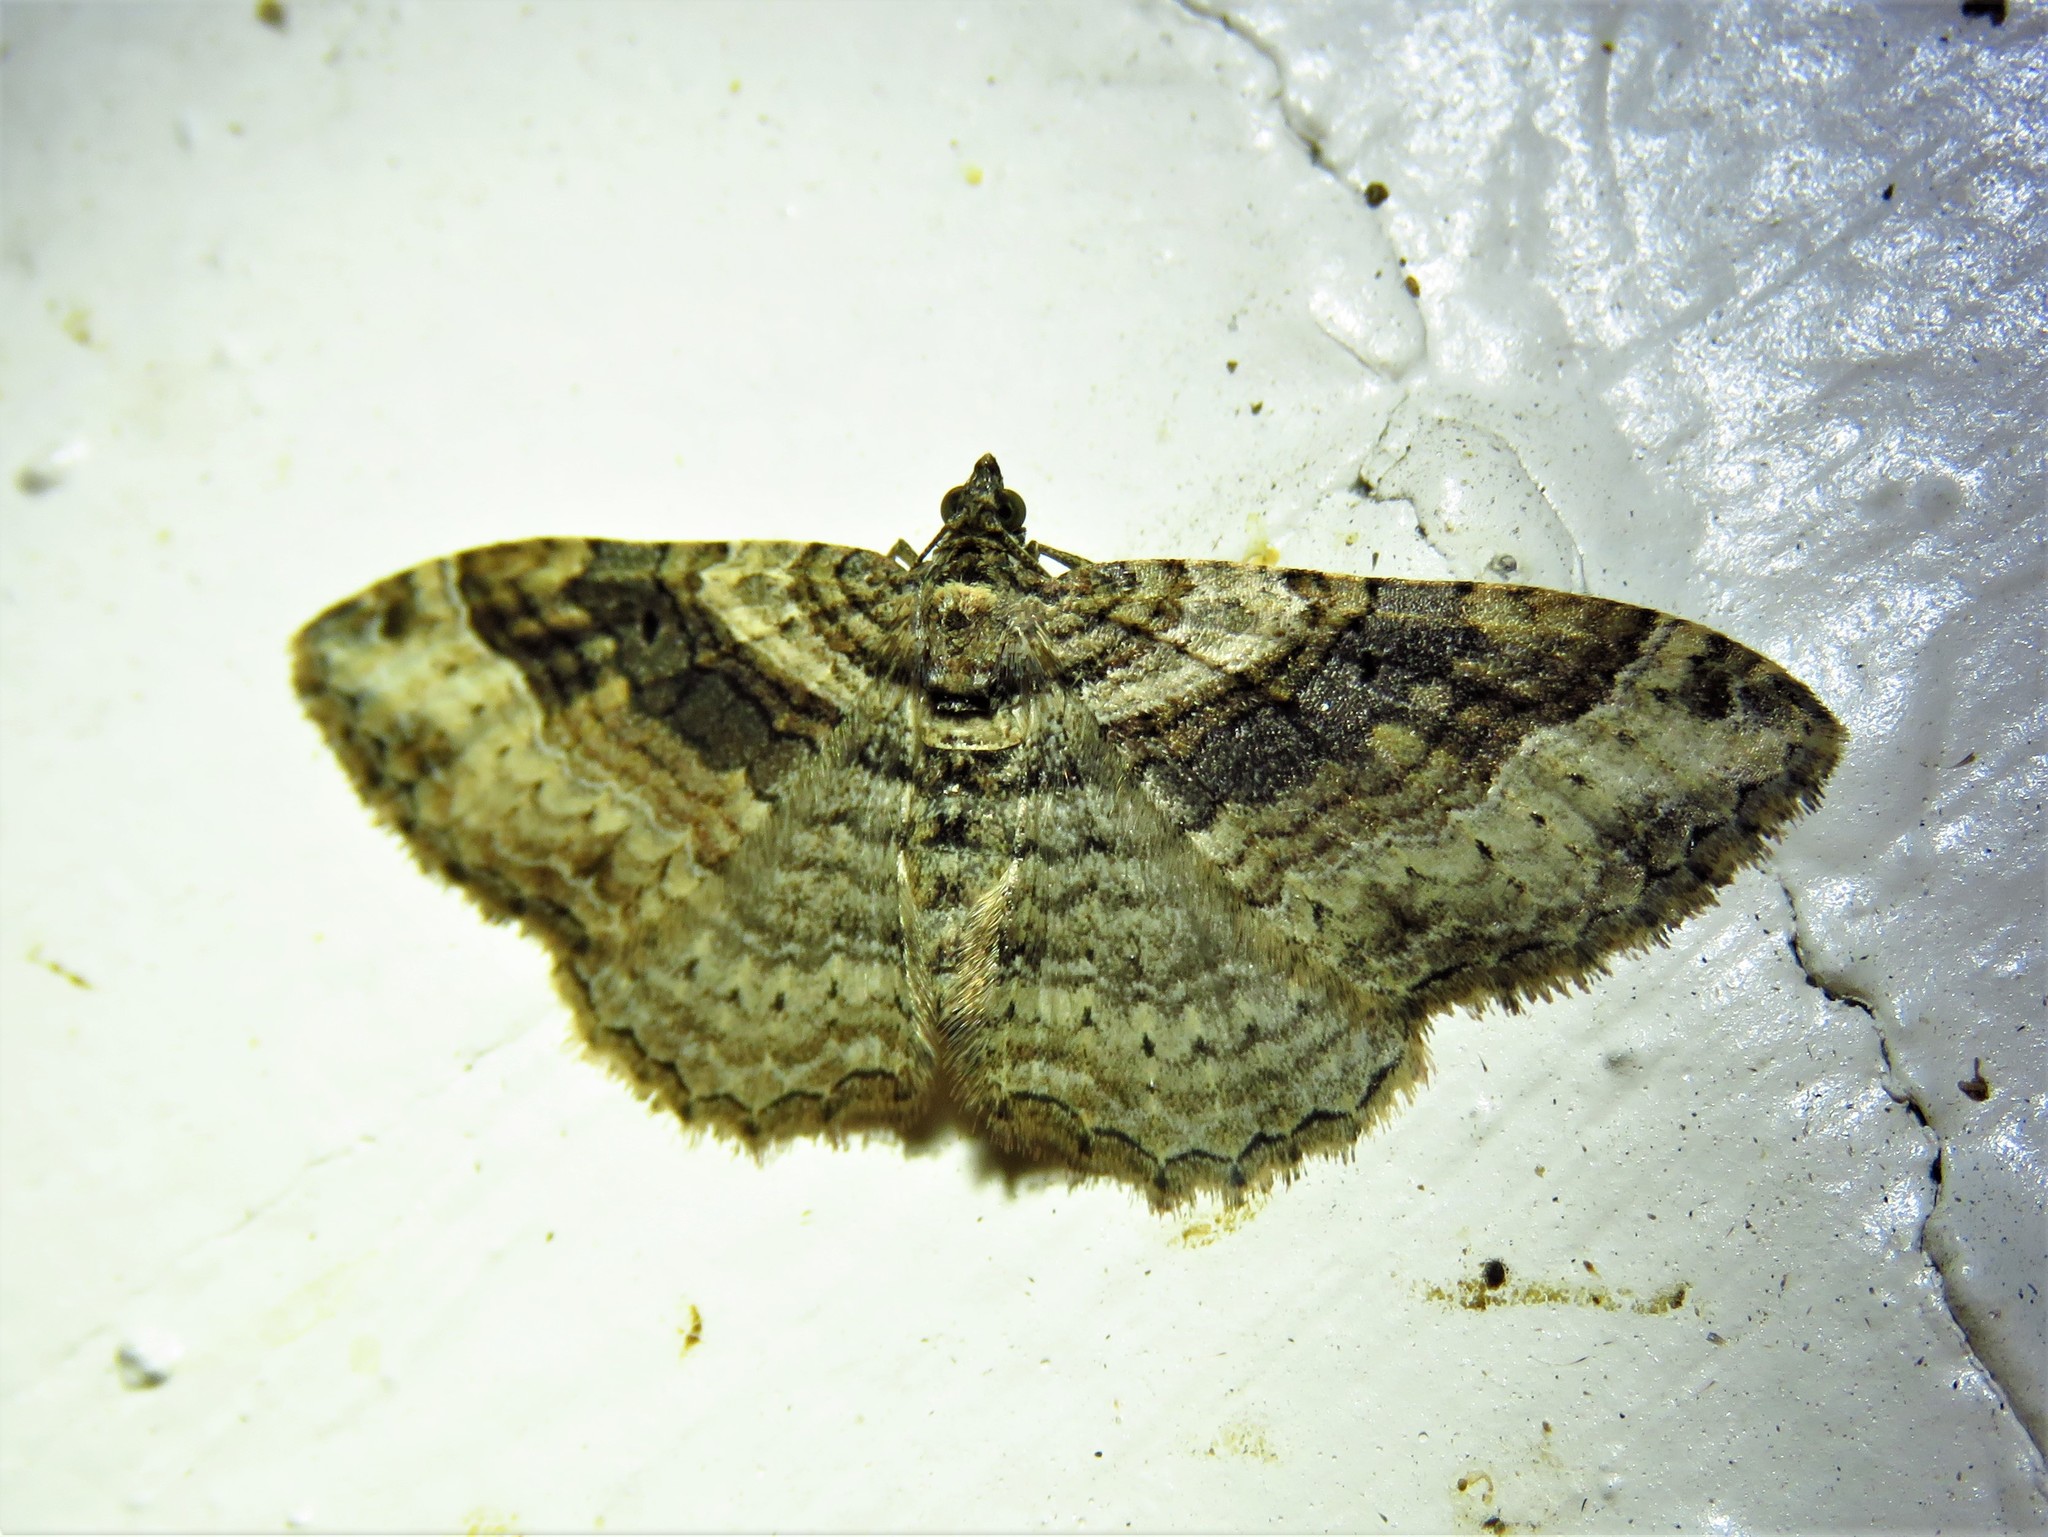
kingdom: Animalia
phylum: Arthropoda
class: Insecta
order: Lepidoptera
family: Geometridae
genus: Costaconvexa
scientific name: Costaconvexa centrostrigaria
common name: Bent-line carpet
